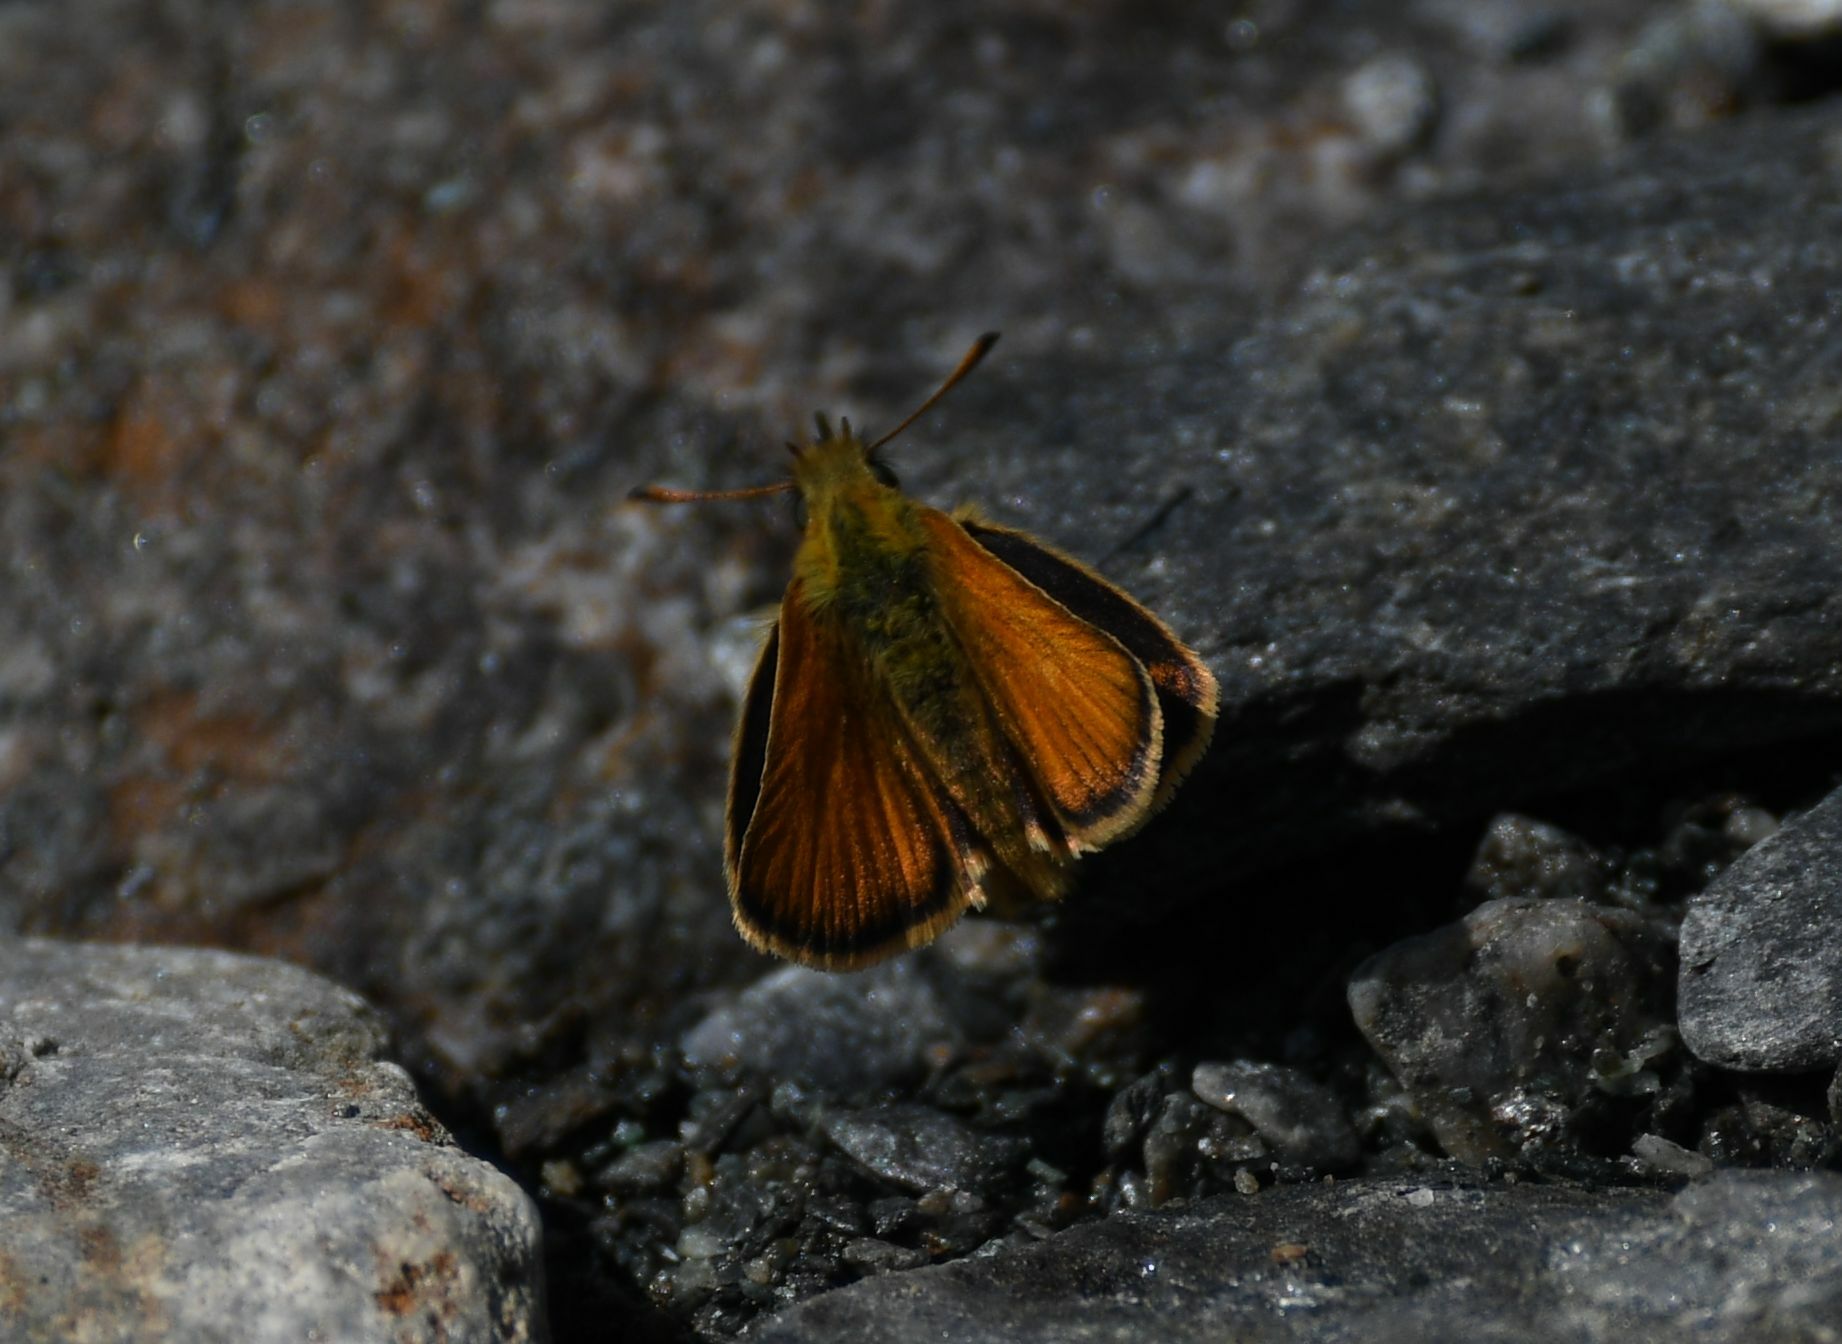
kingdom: Animalia
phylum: Arthropoda
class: Insecta
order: Lepidoptera
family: Hesperiidae
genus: Thymelicus
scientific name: Thymelicus lineola
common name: Essex skipper
